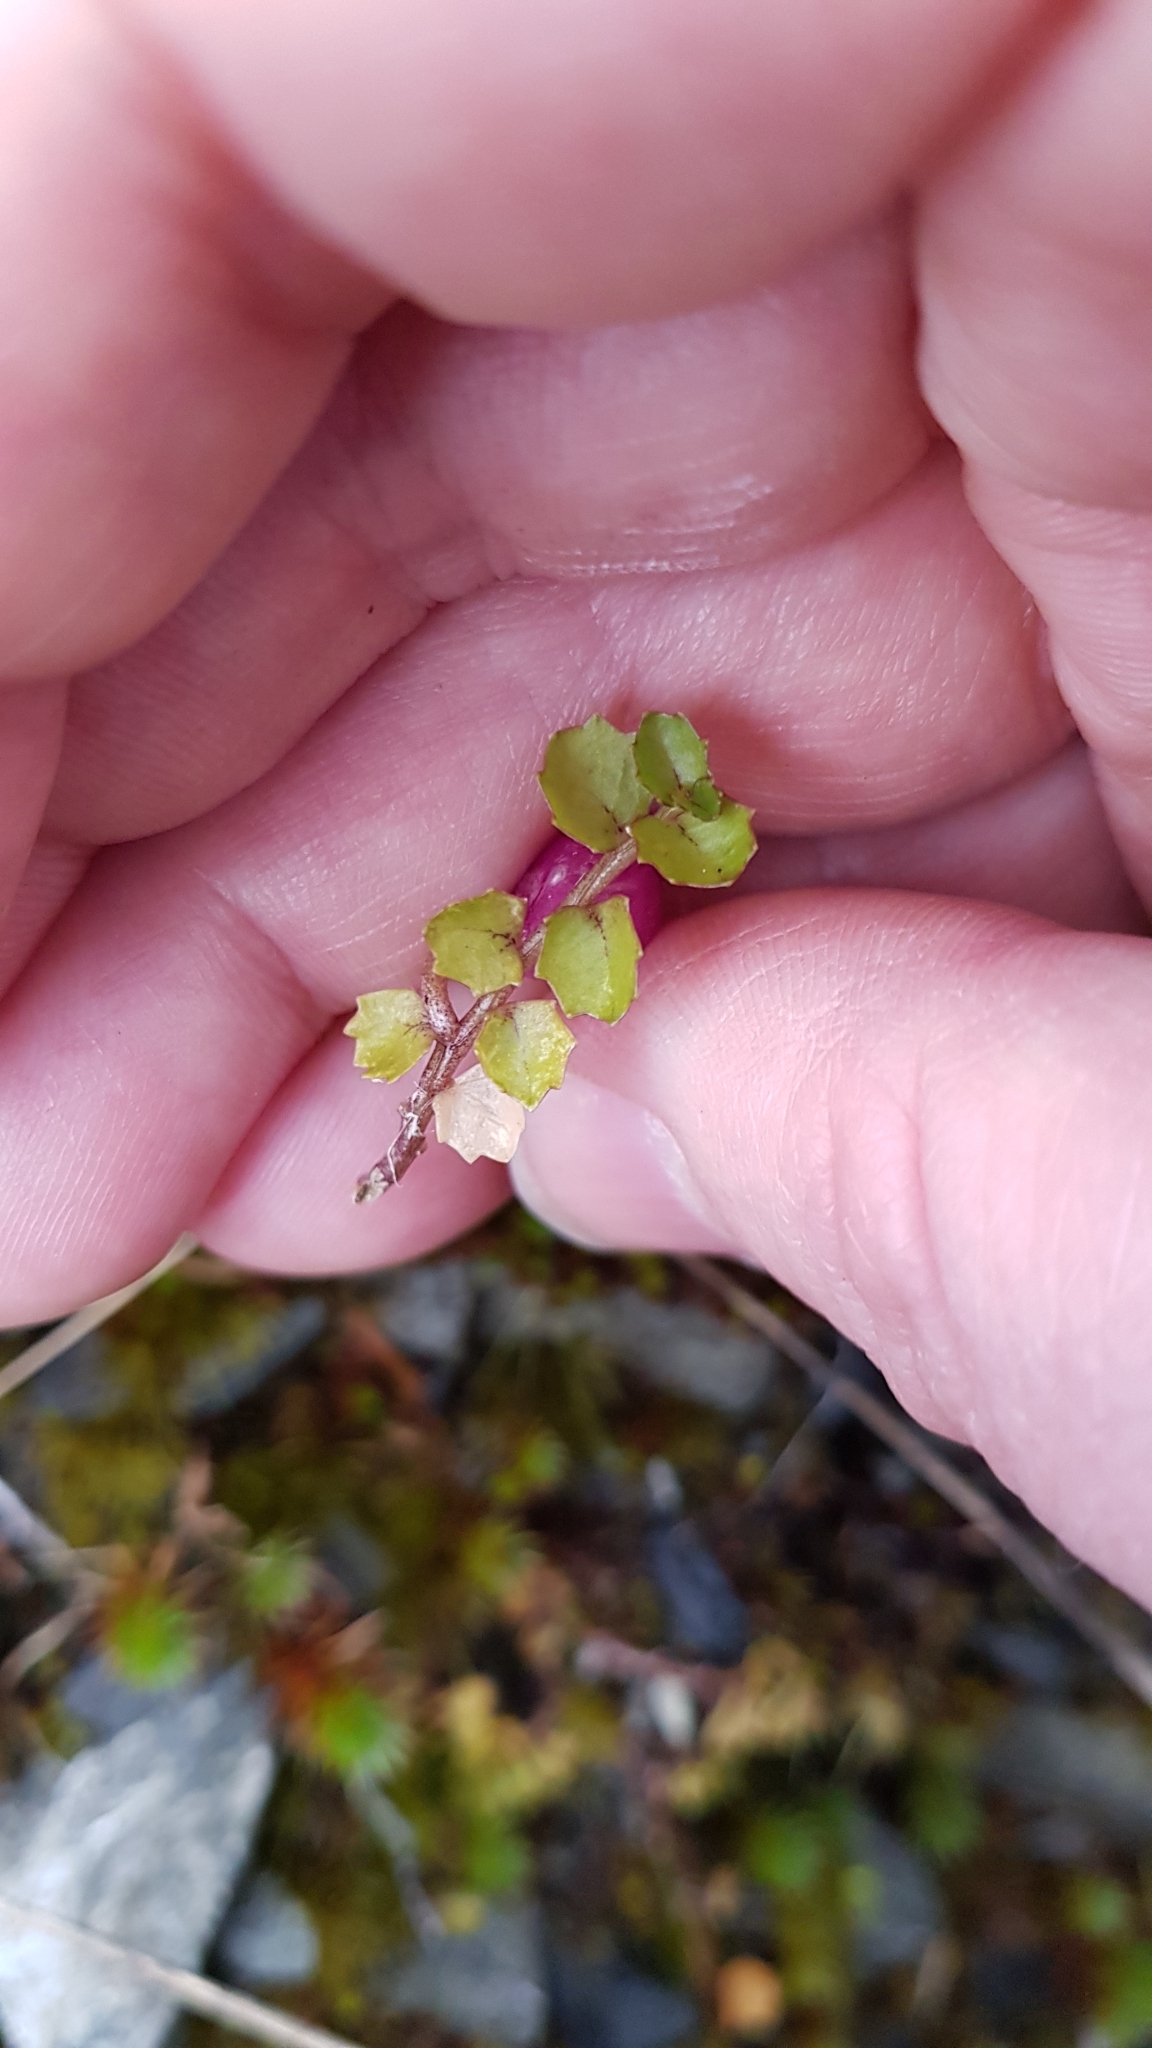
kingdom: Plantae
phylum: Tracheophyta
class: Magnoliopsida
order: Asterales
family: Campanulaceae
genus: Lobelia
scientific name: Lobelia angulata
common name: Lawn lobelia
